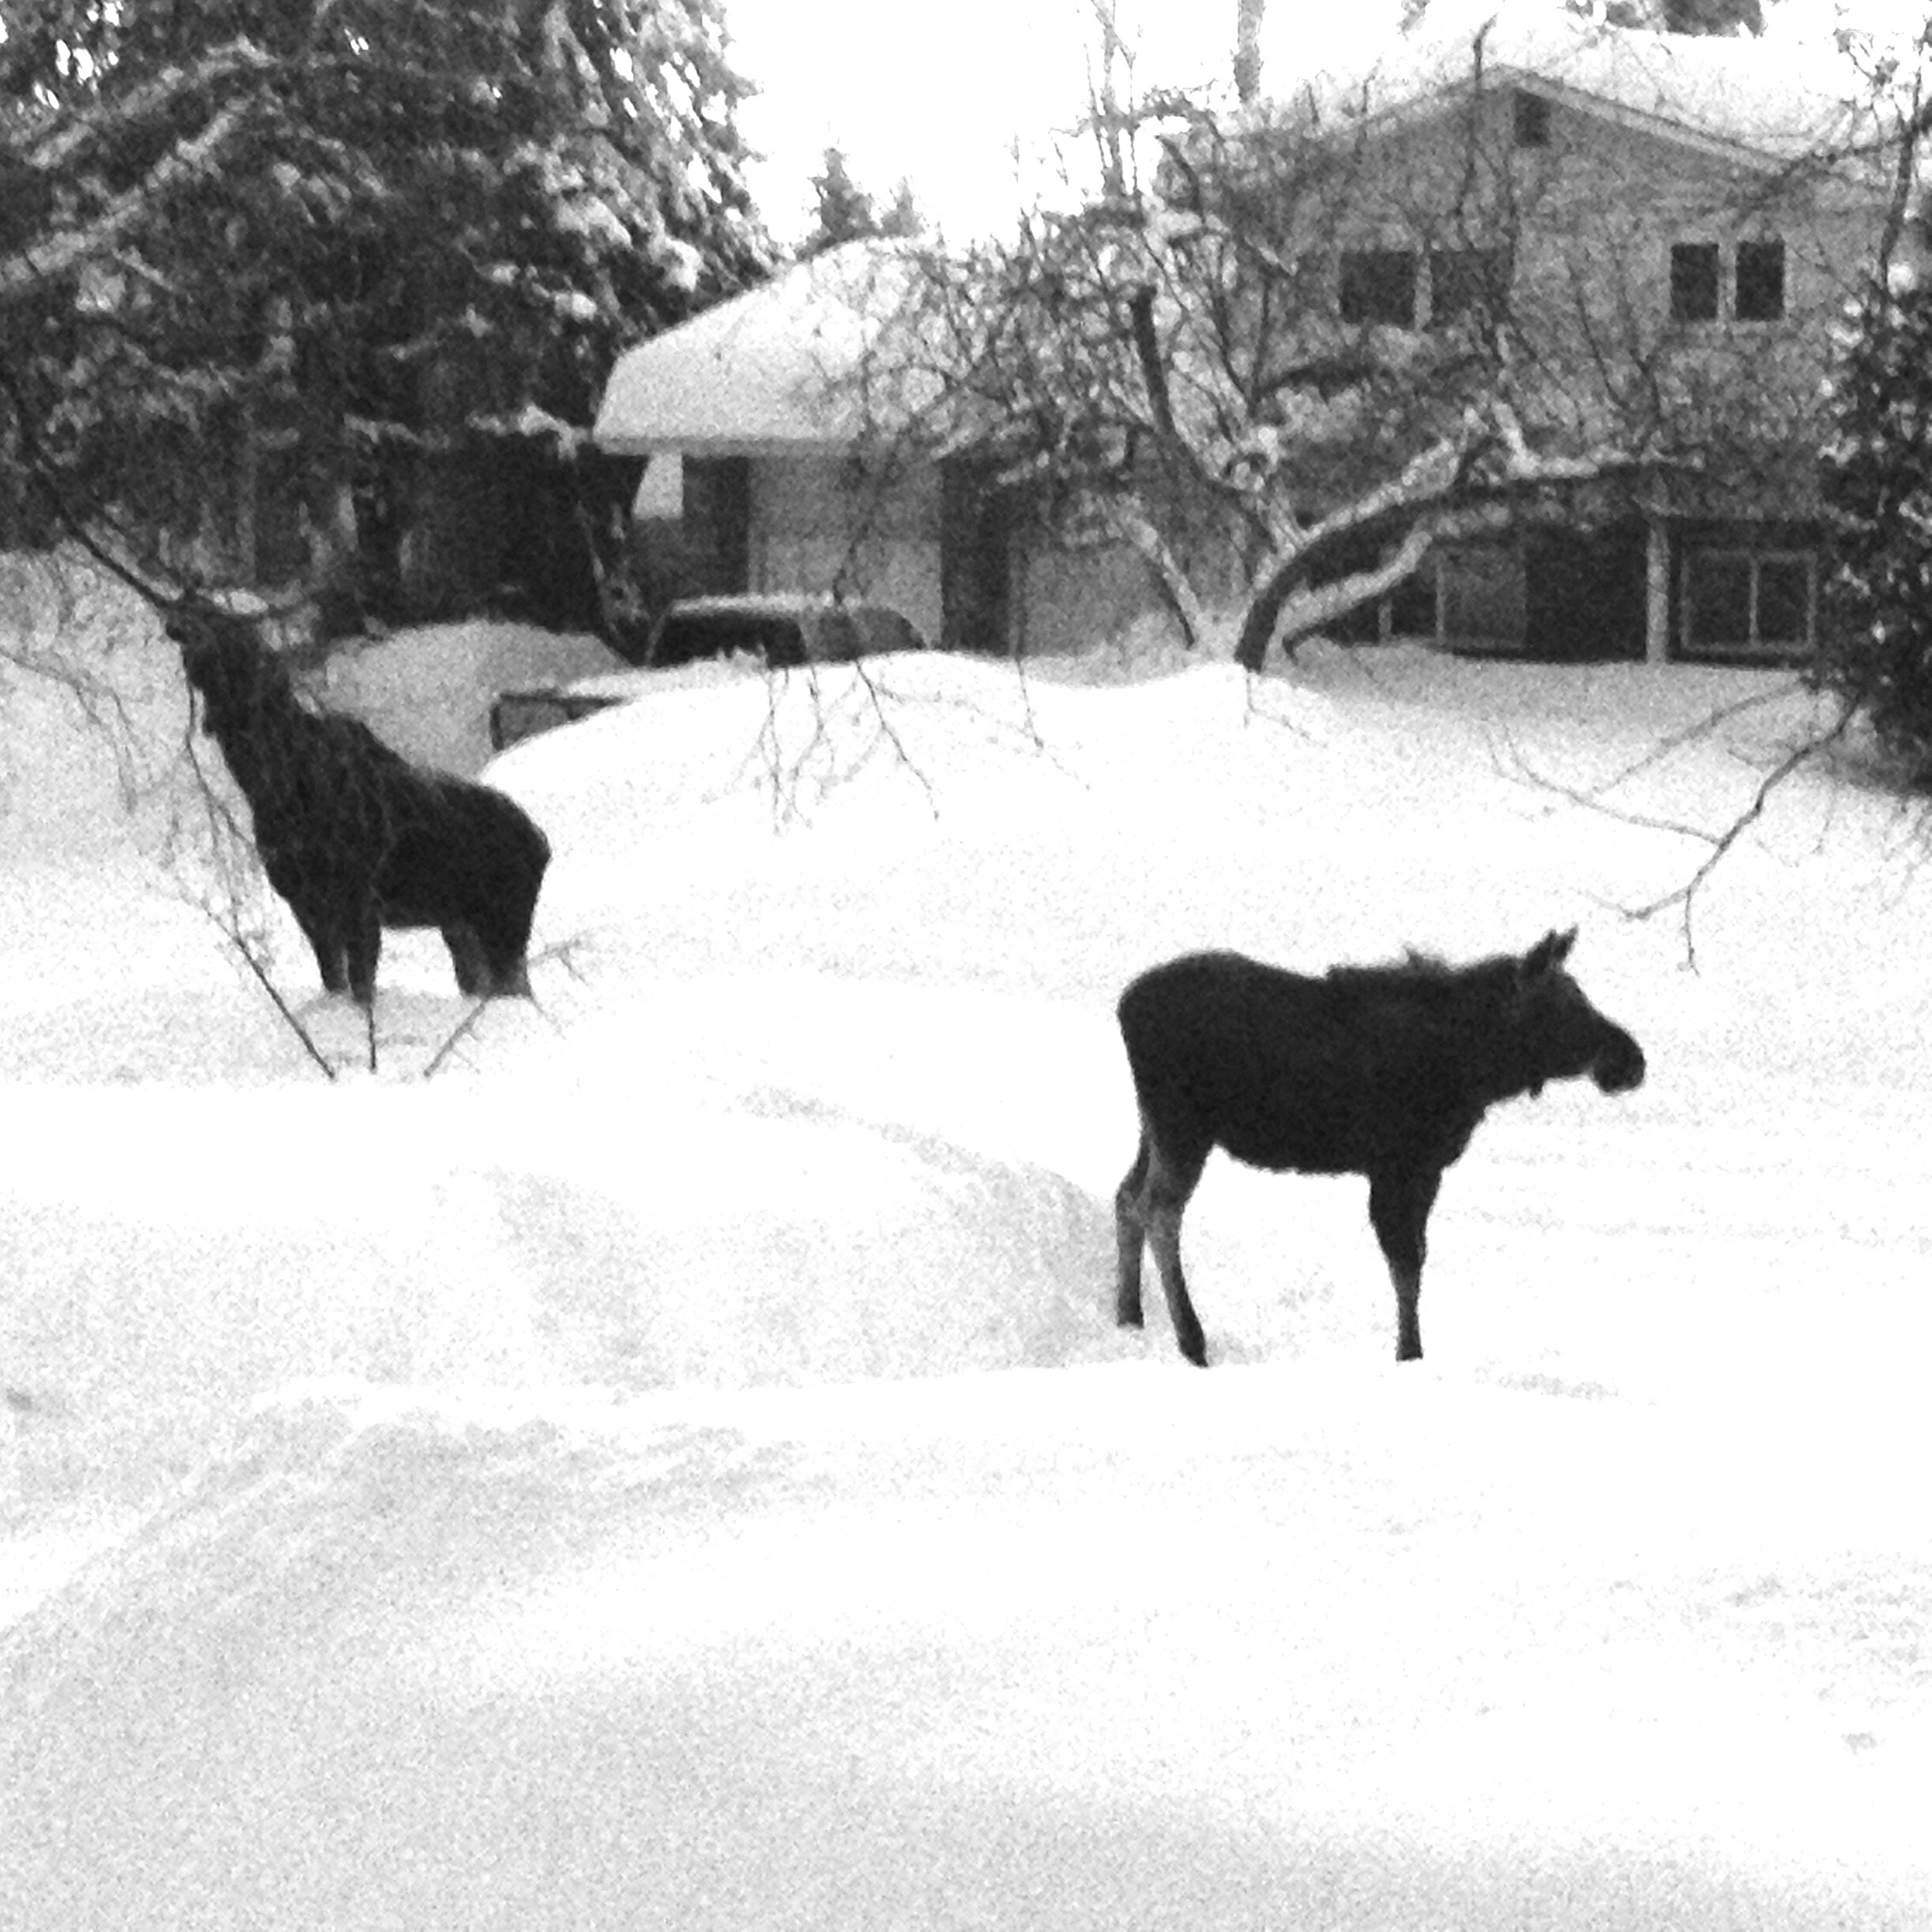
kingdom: Animalia
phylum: Chordata
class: Mammalia
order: Artiodactyla
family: Cervidae
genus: Alces
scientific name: Alces alces
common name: Moose
